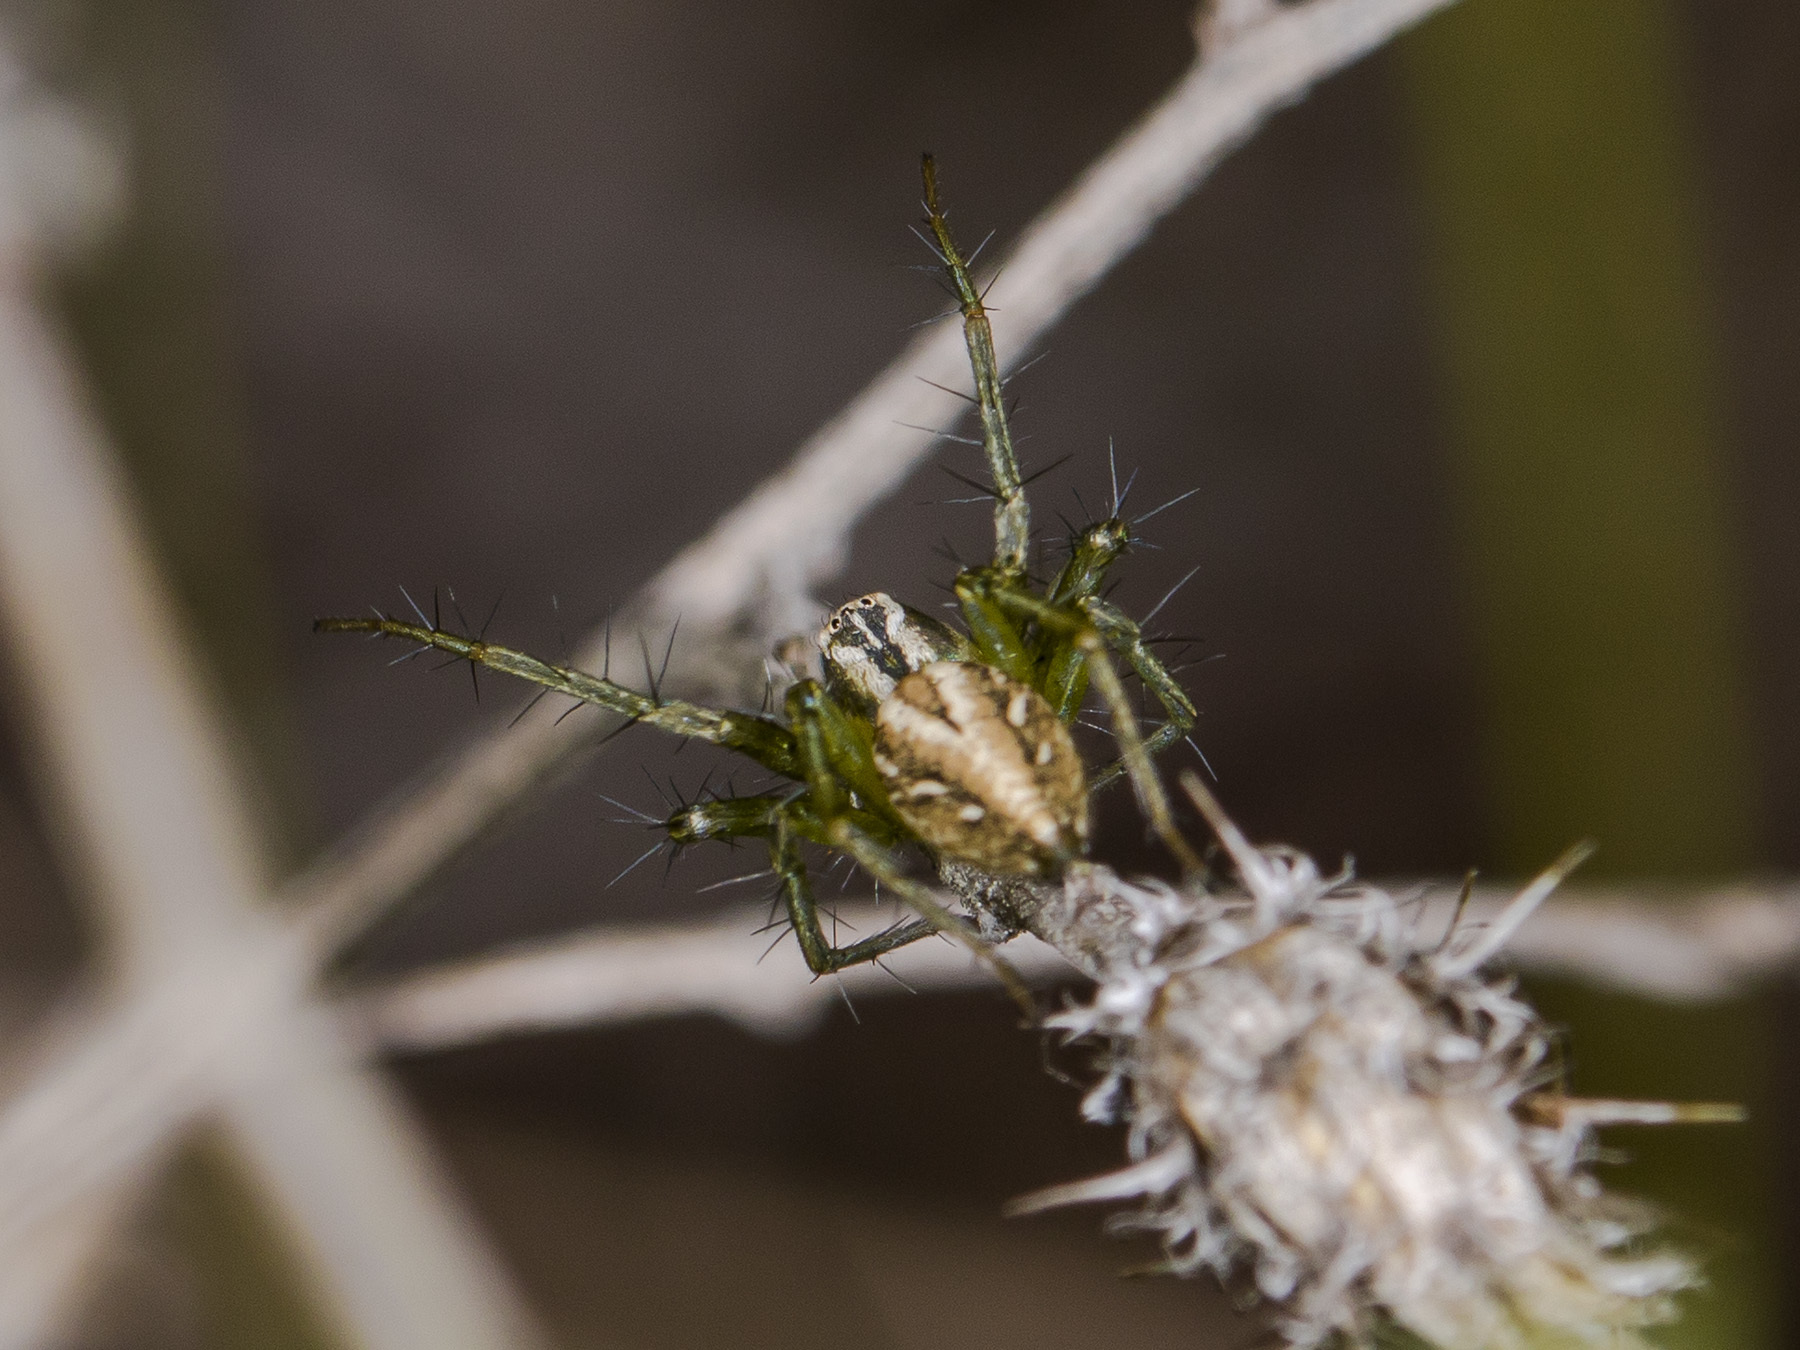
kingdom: Animalia
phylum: Arthropoda
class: Arachnida
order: Araneae
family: Oxyopidae
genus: Oxyopes
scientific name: Oxyopes lineatus
